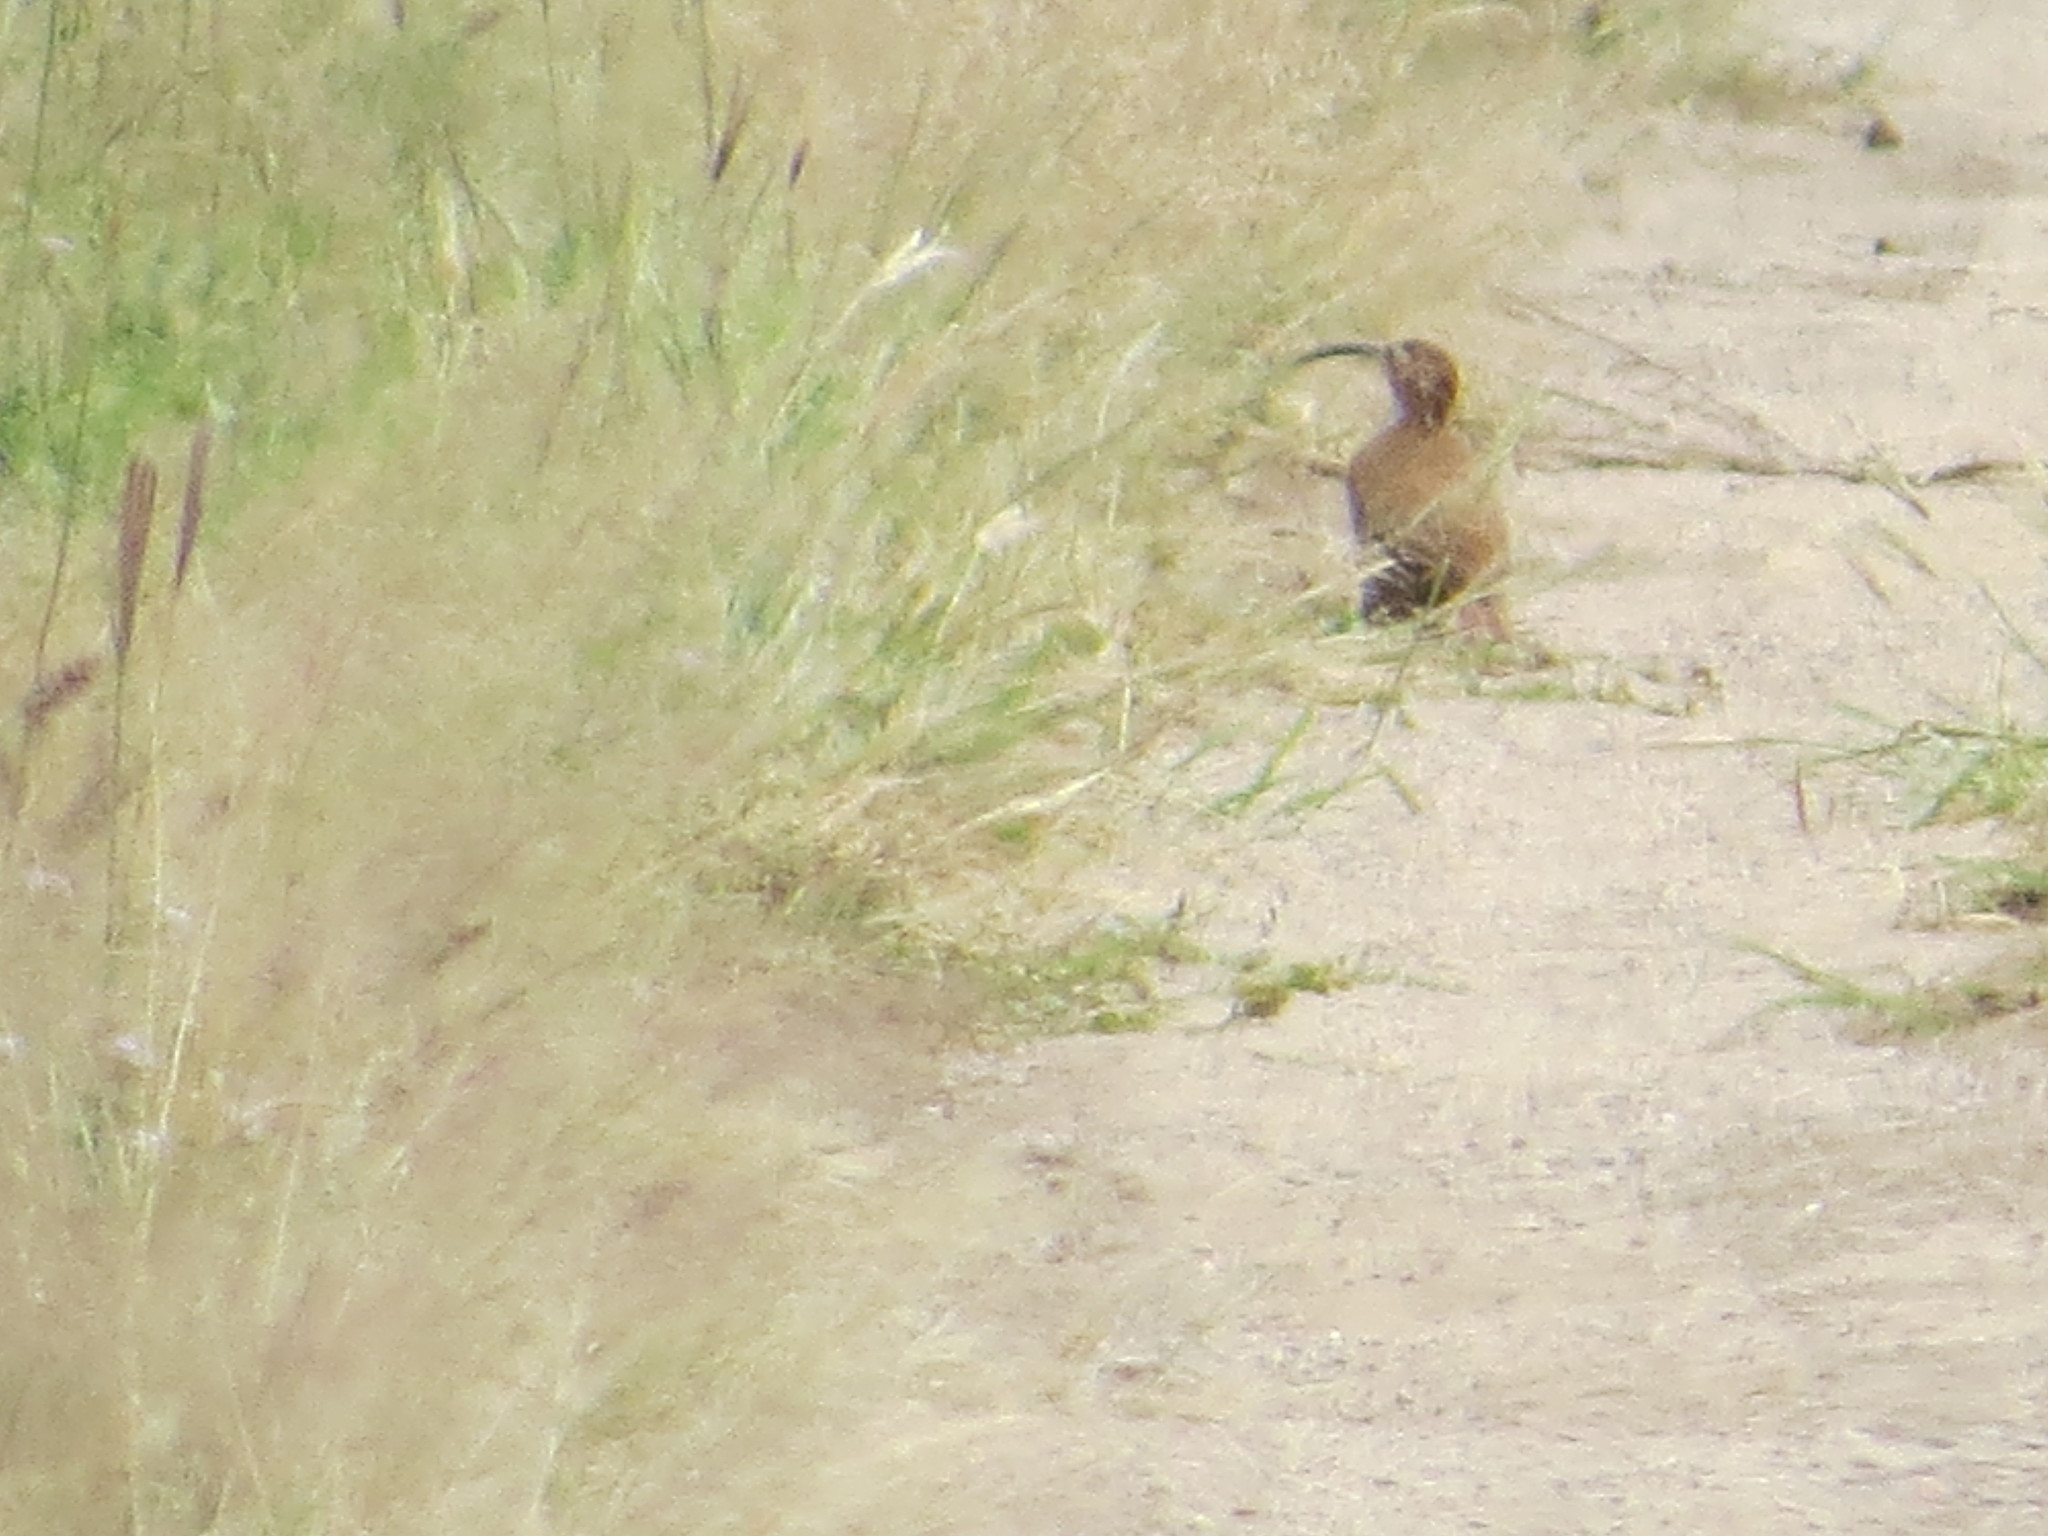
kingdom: Animalia
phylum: Chordata
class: Aves
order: Passeriformes
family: Furnariidae
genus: Drymornis
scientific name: Drymornis bridgesii
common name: Scimitar-billed woodcreeper
